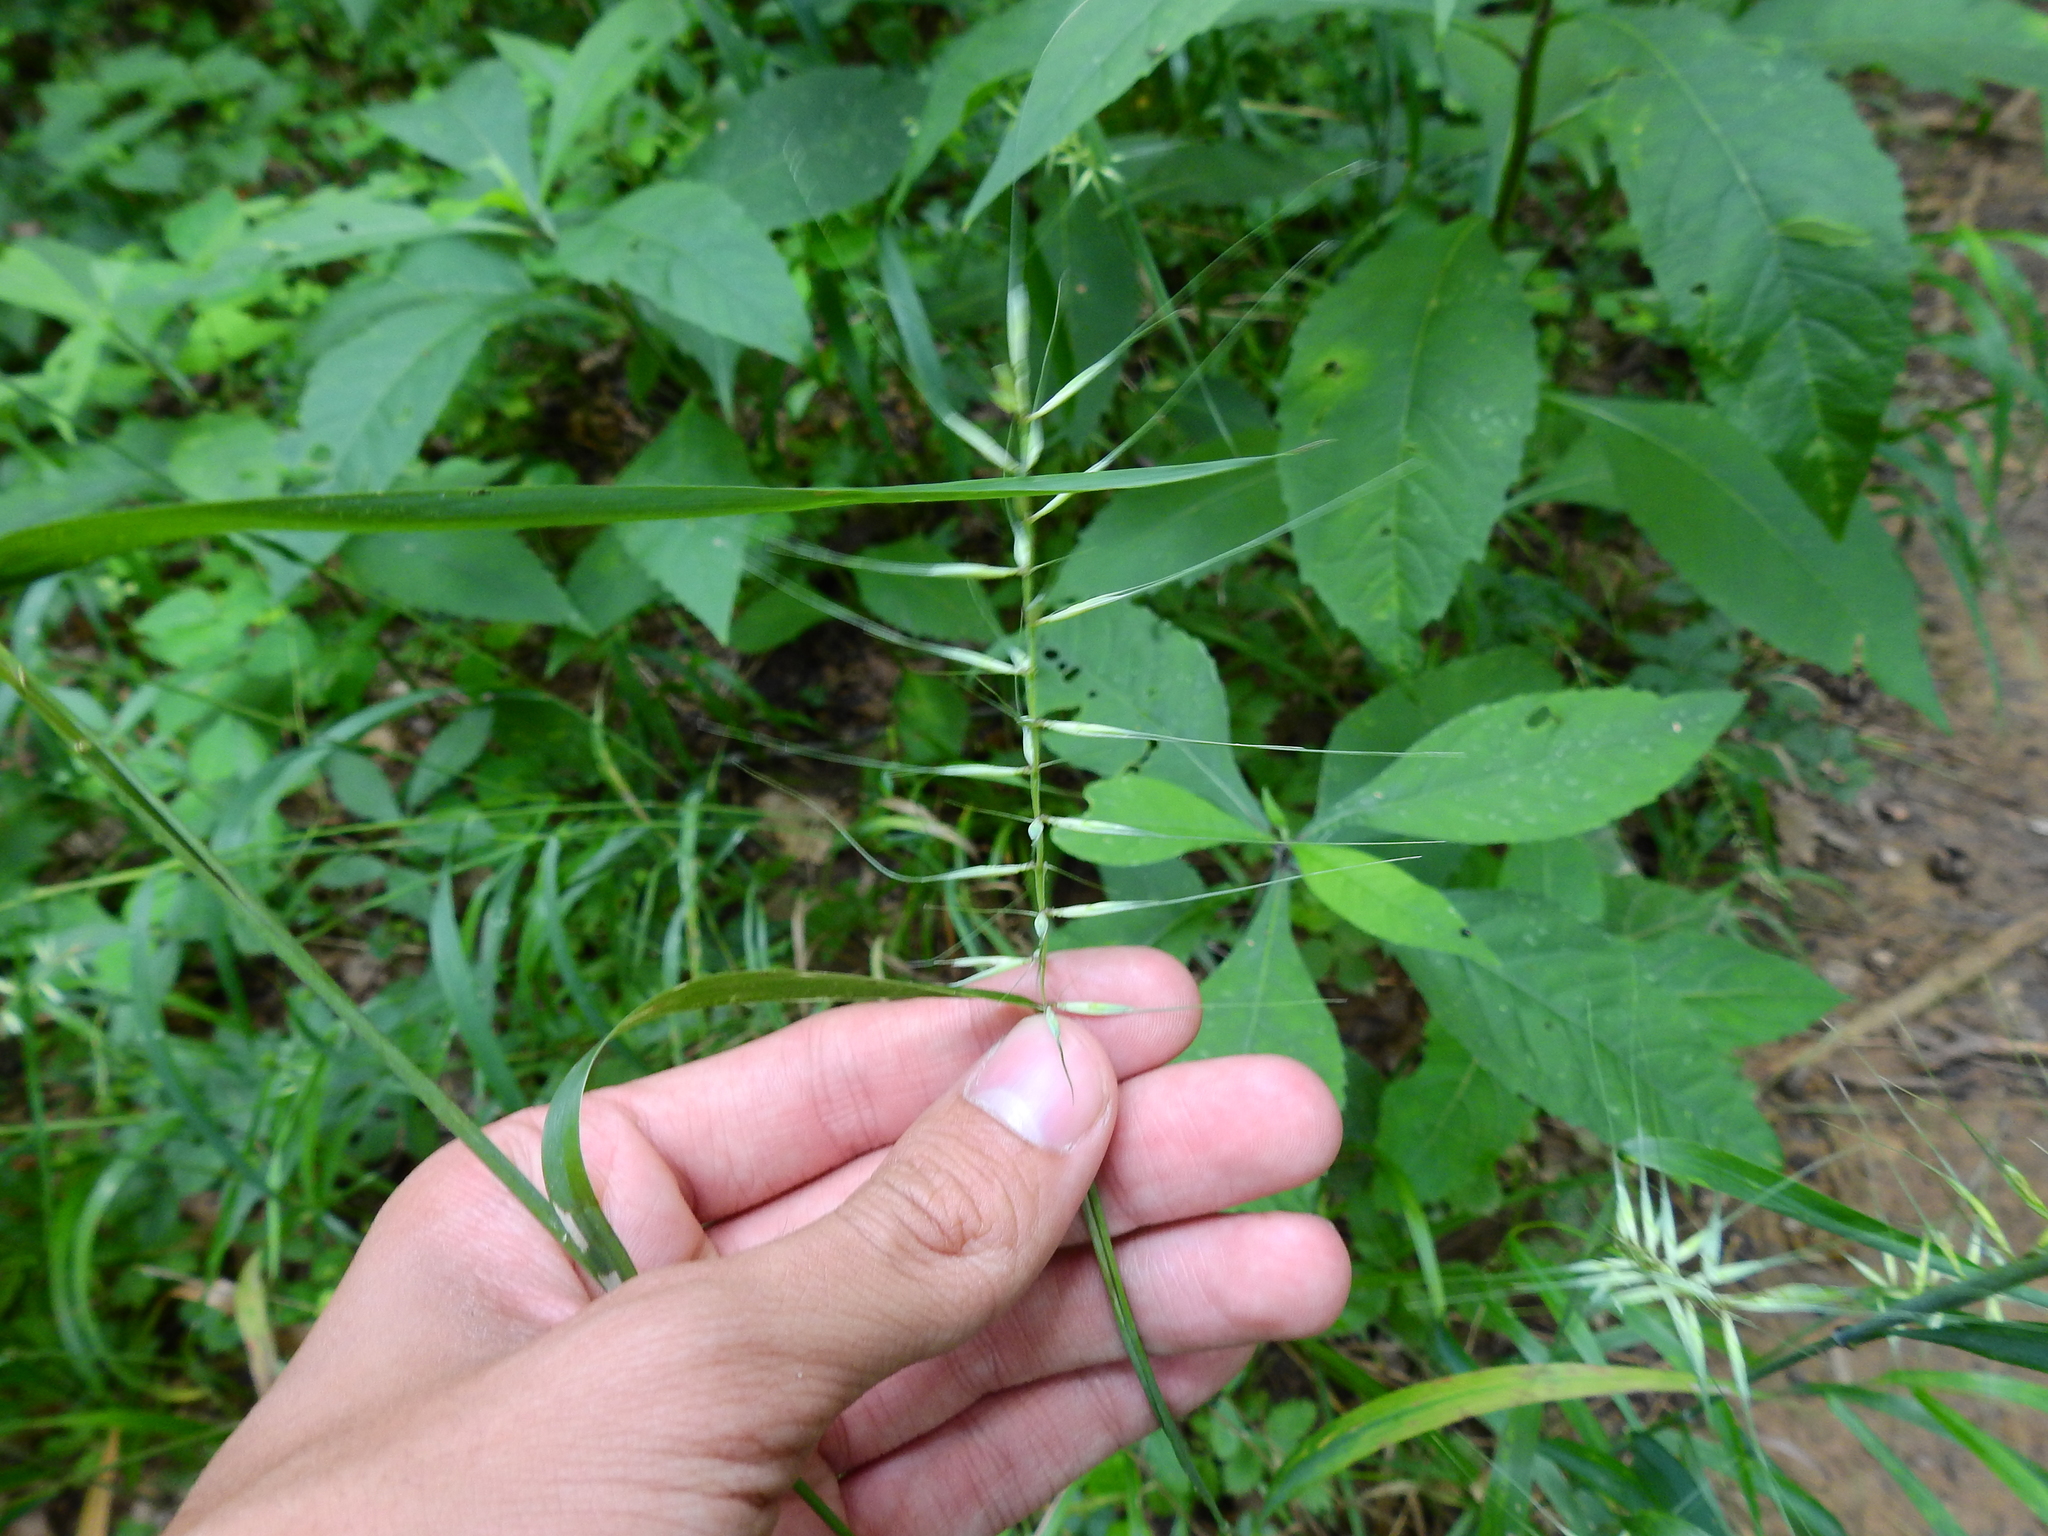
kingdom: Plantae
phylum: Tracheophyta
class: Liliopsida
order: Poales
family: Poaceae
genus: Elymus
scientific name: Elymus hystrix
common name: Bottlebrush grass
